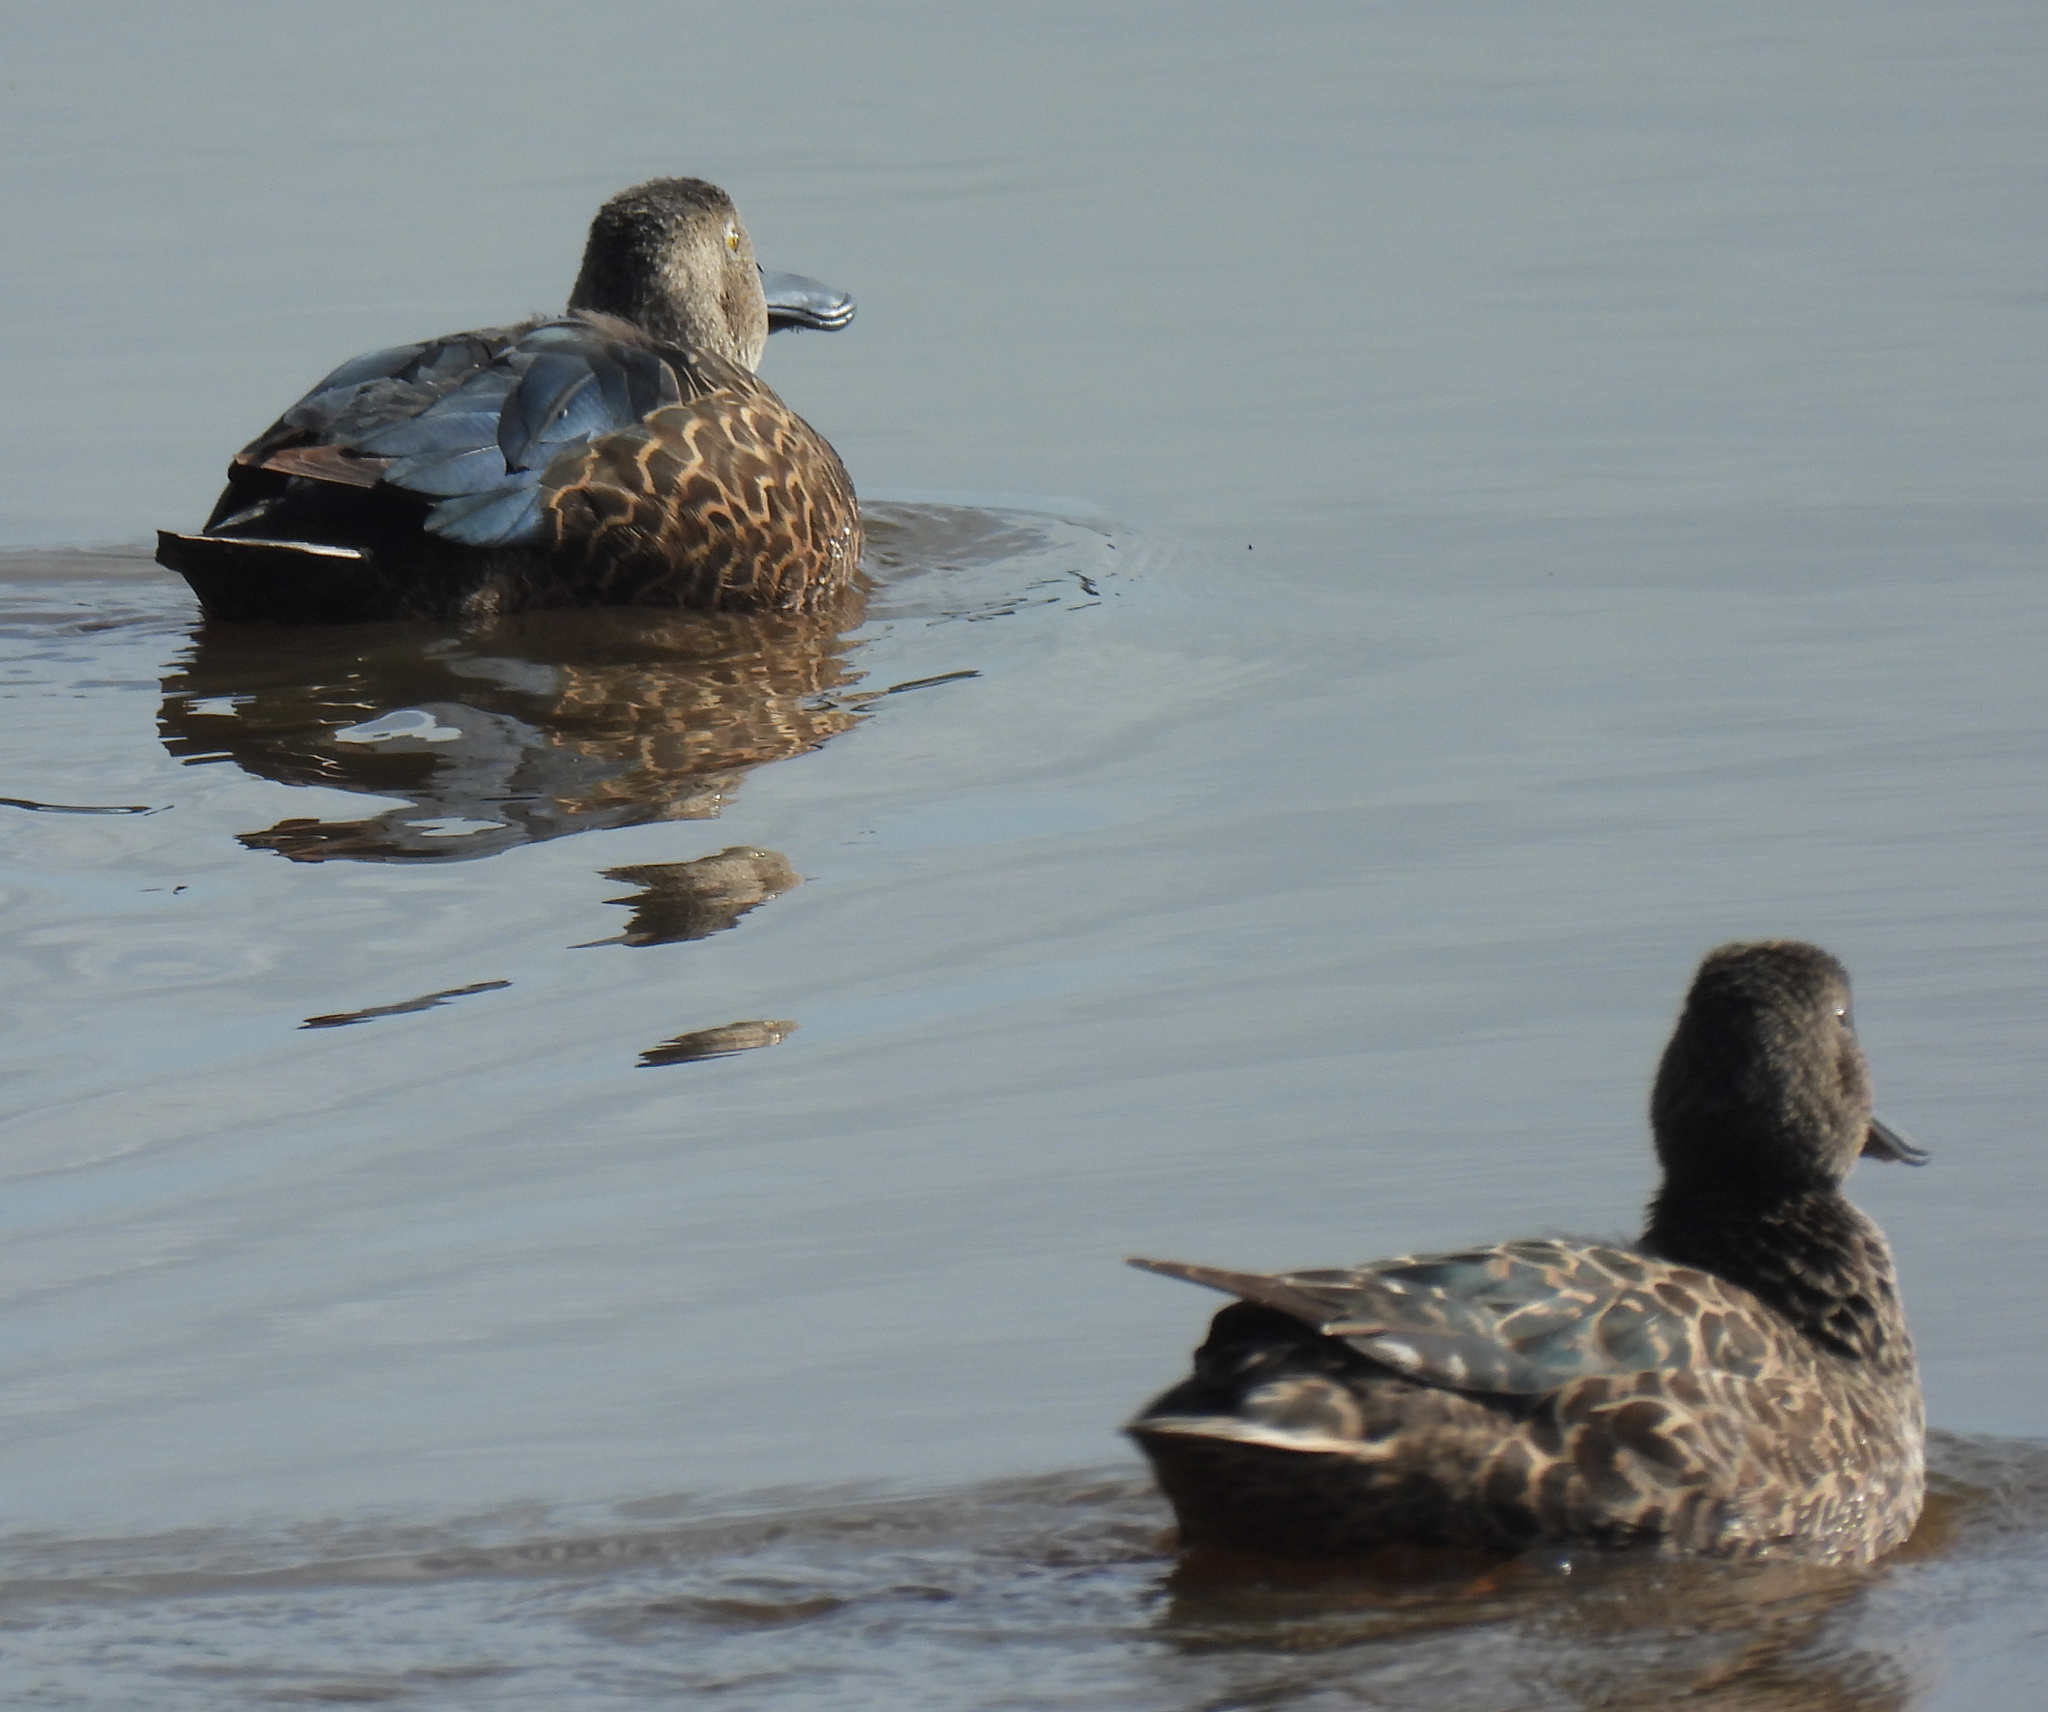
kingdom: Animalia
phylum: Chordata
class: Aves
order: Anseriformes
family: Anatidae
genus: Spatula
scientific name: Spatula smithii
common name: Cape shoveler
